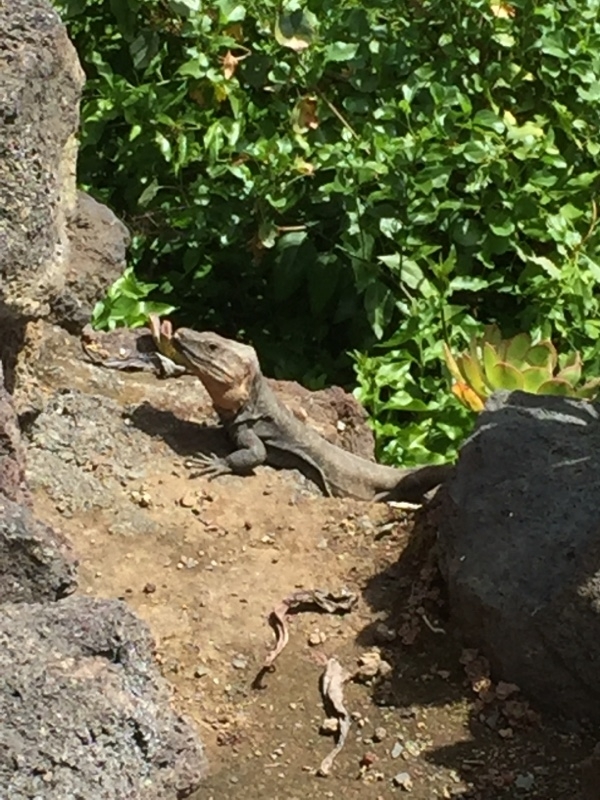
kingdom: Animalia
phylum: Chordata
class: Squamata
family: Lacertidae
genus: Gallotia
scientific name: Gallotia stehlini
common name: Gran canaria giant lizard
